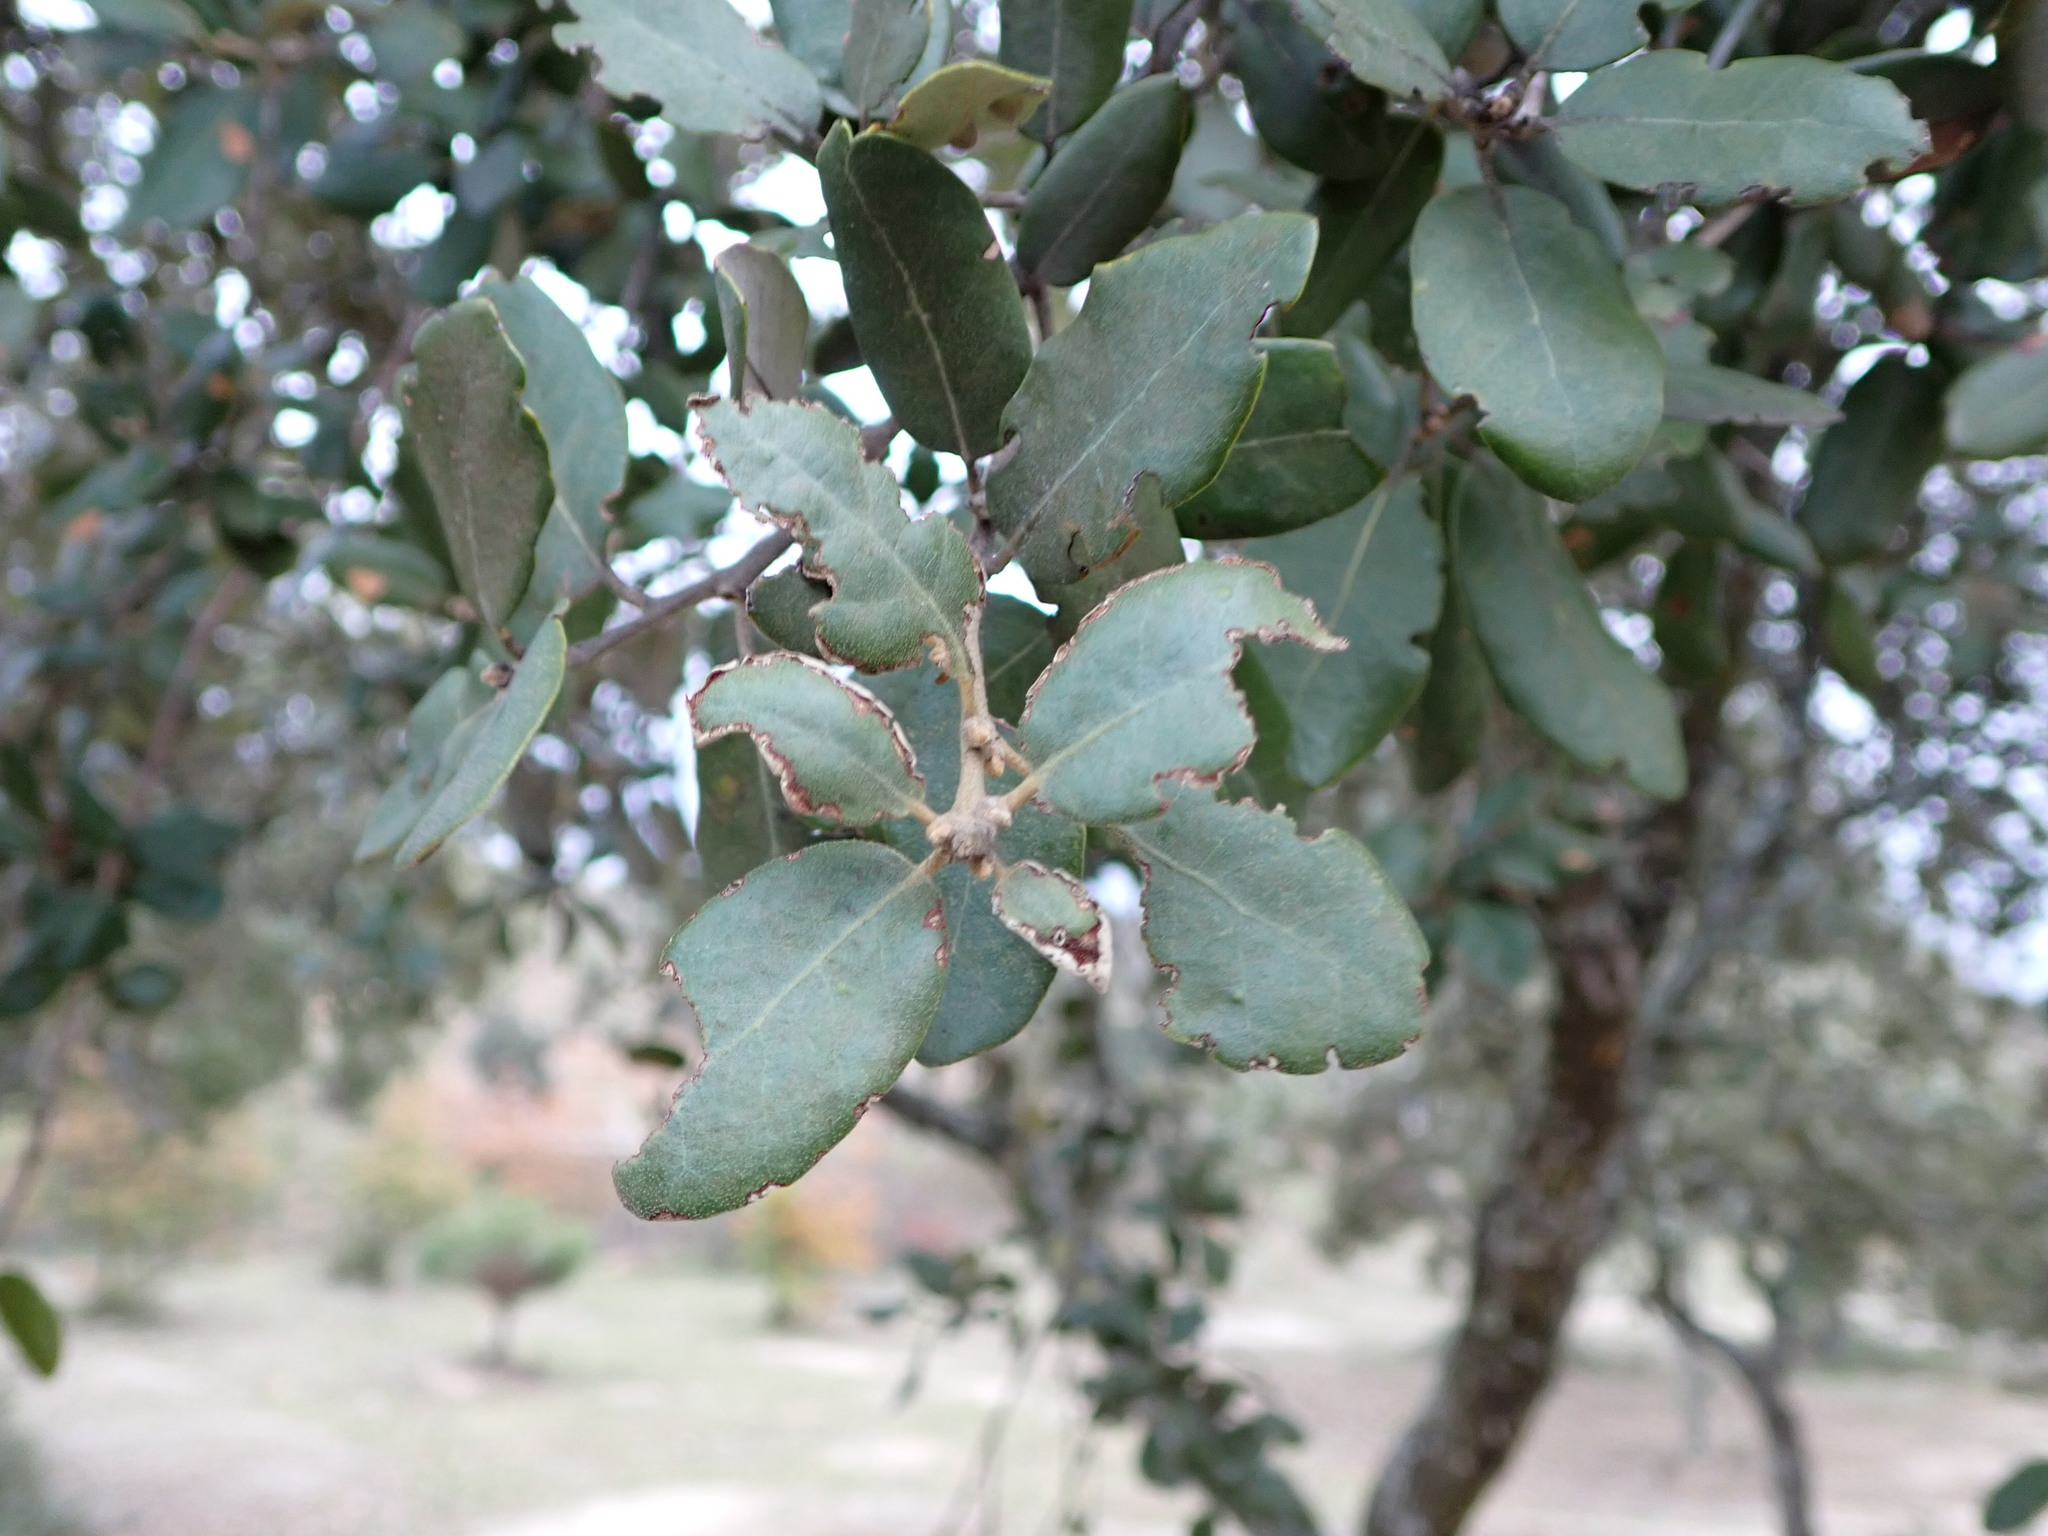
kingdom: Plantae
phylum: Tracheophyta
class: Magnoliopsida
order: Fagales
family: Fagaceae
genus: Quercus
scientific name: Quercus rotundifolia
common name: Holm oak
